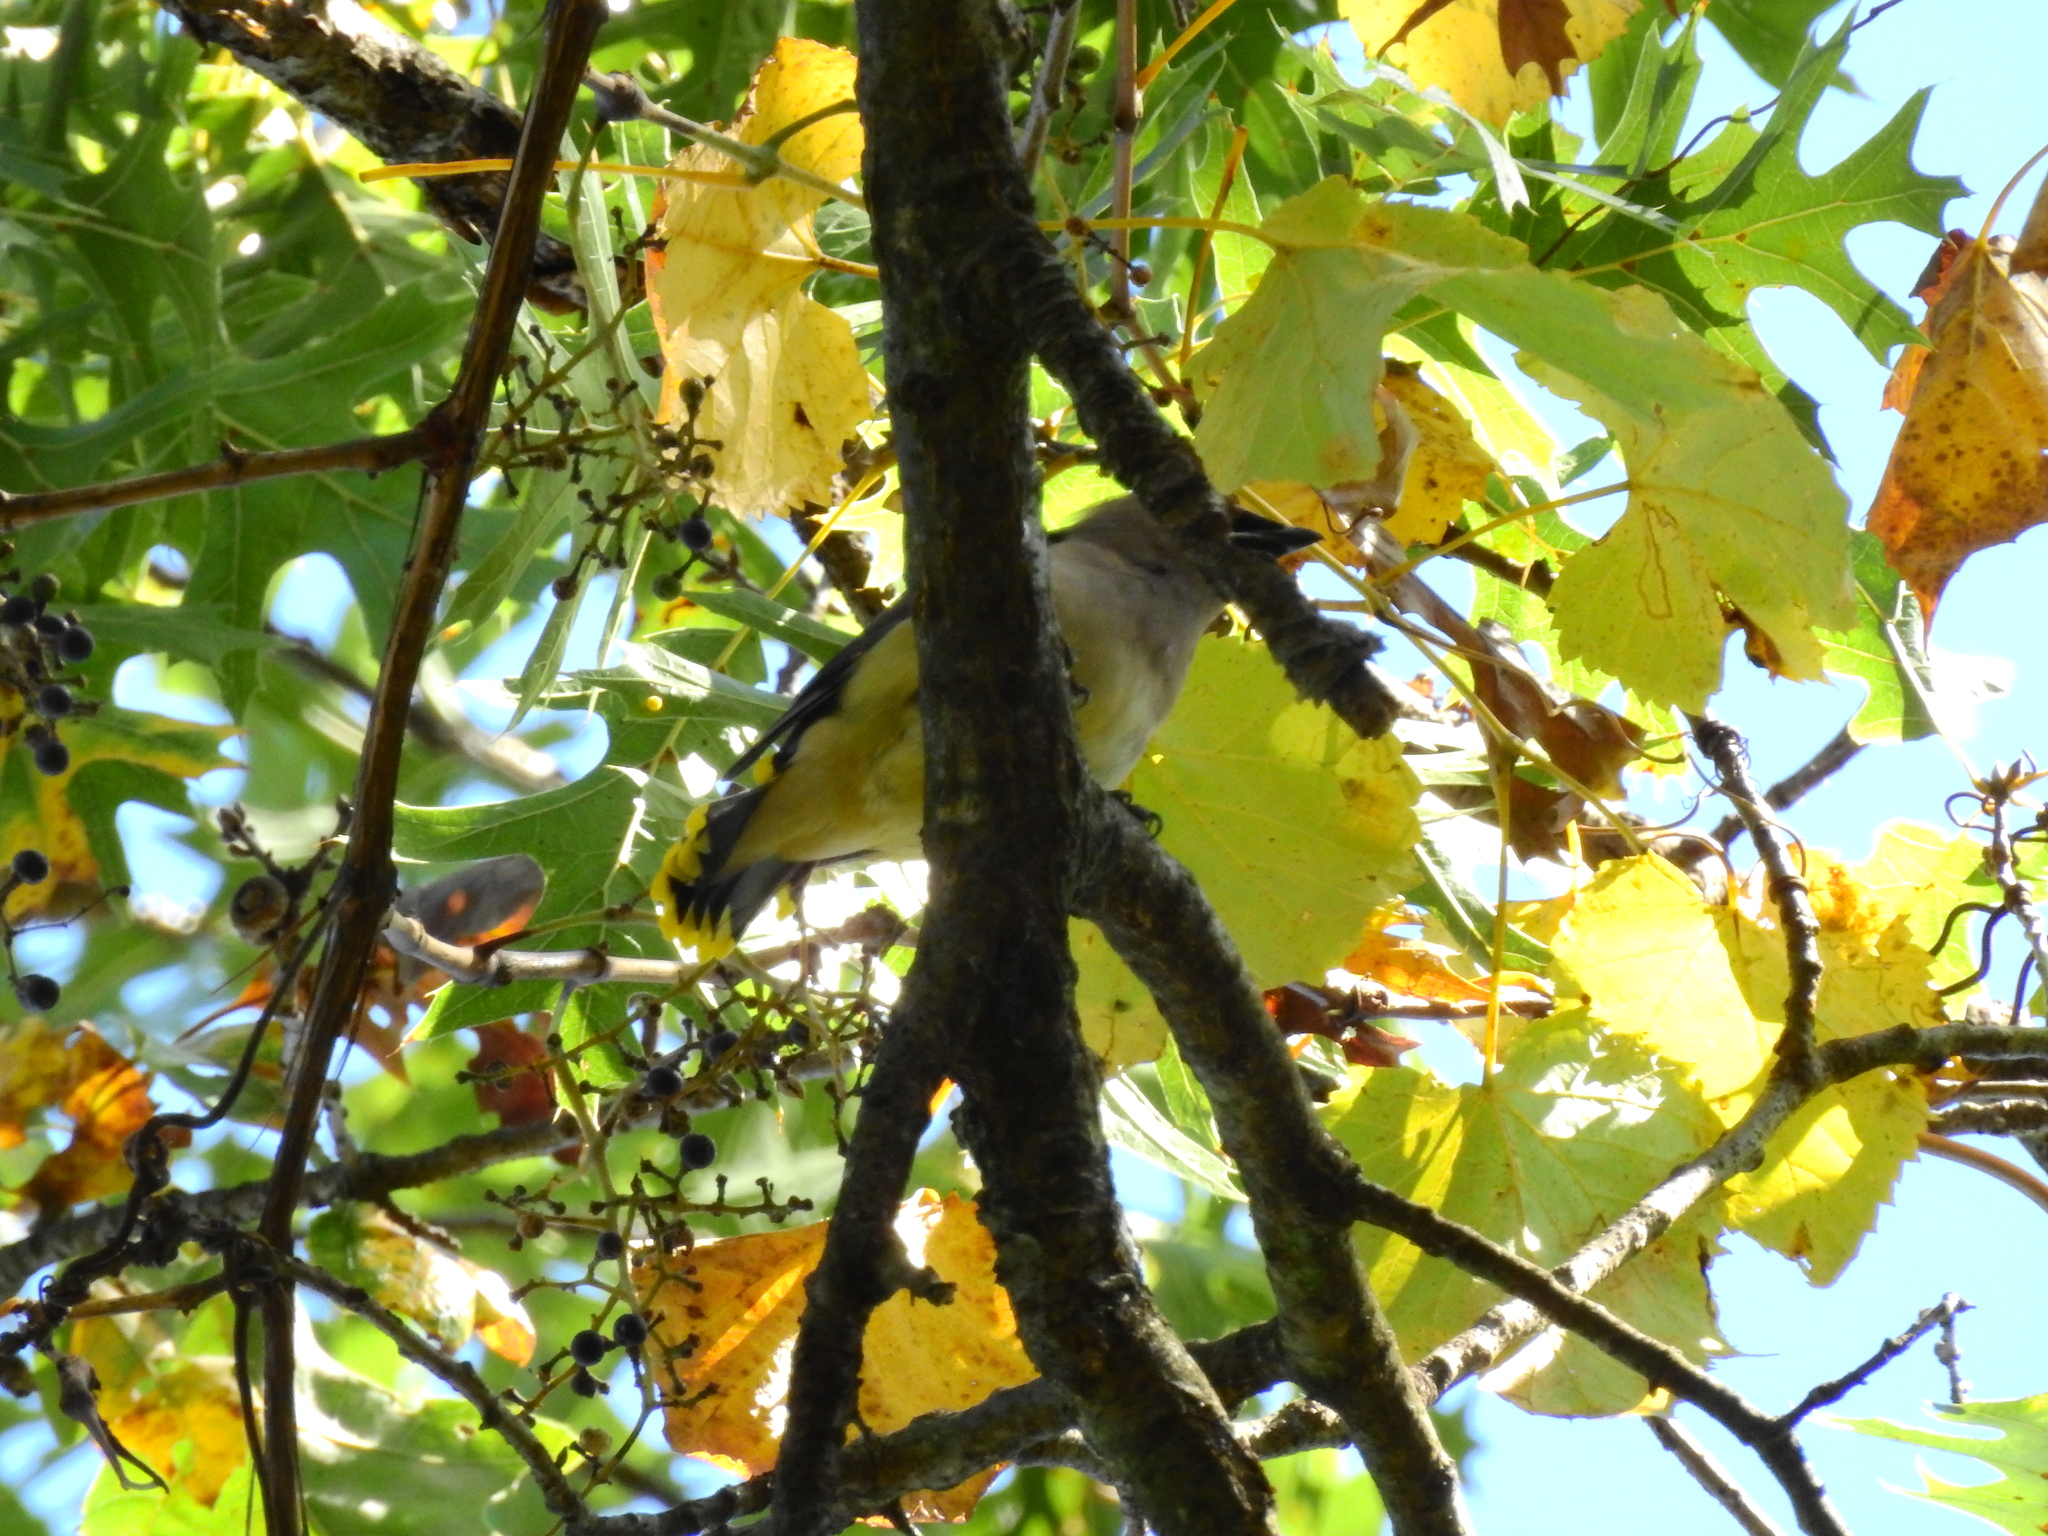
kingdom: Animalia
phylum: Chordata
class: Aves
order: Passeriformes
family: Bombycillidae
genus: Bombycilla
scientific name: Bombycilla cedrorum
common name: Cedar waxwing
